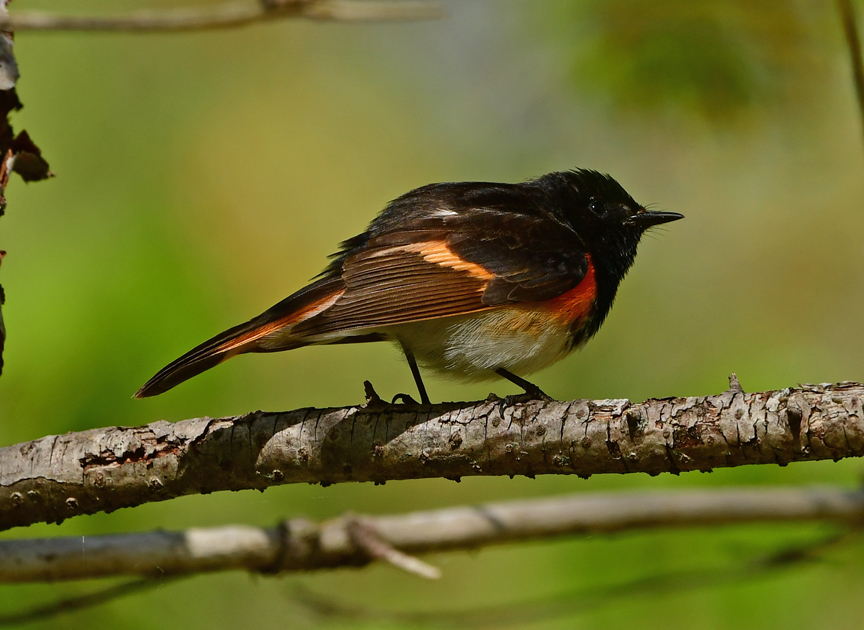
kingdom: Animalia
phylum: Chordata
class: Aves
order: Passeriformes
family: Parulidae
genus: Setophaga
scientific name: Setophaga ruticilla
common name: American redstart
